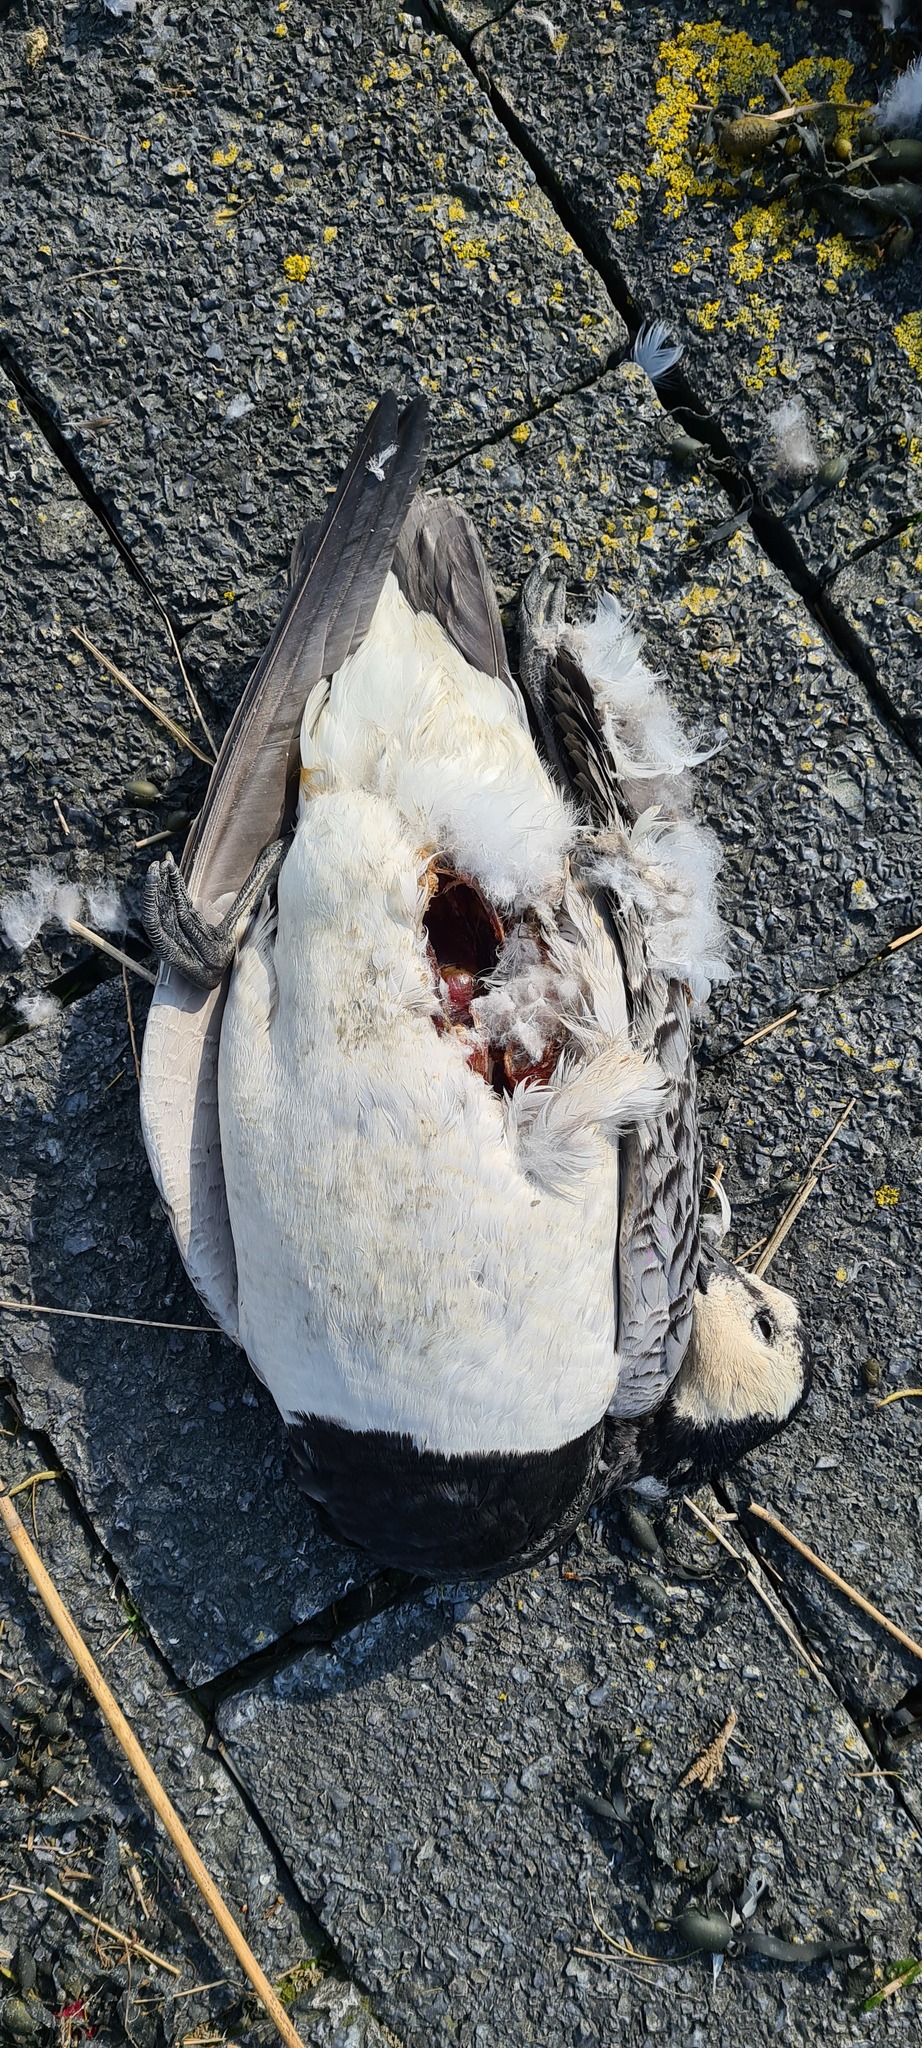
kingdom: Animalia
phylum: Chordata
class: Aves
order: Anseriformes
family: Anatidae
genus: Branta
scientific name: Branta leucopsis
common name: Barnacle goose
